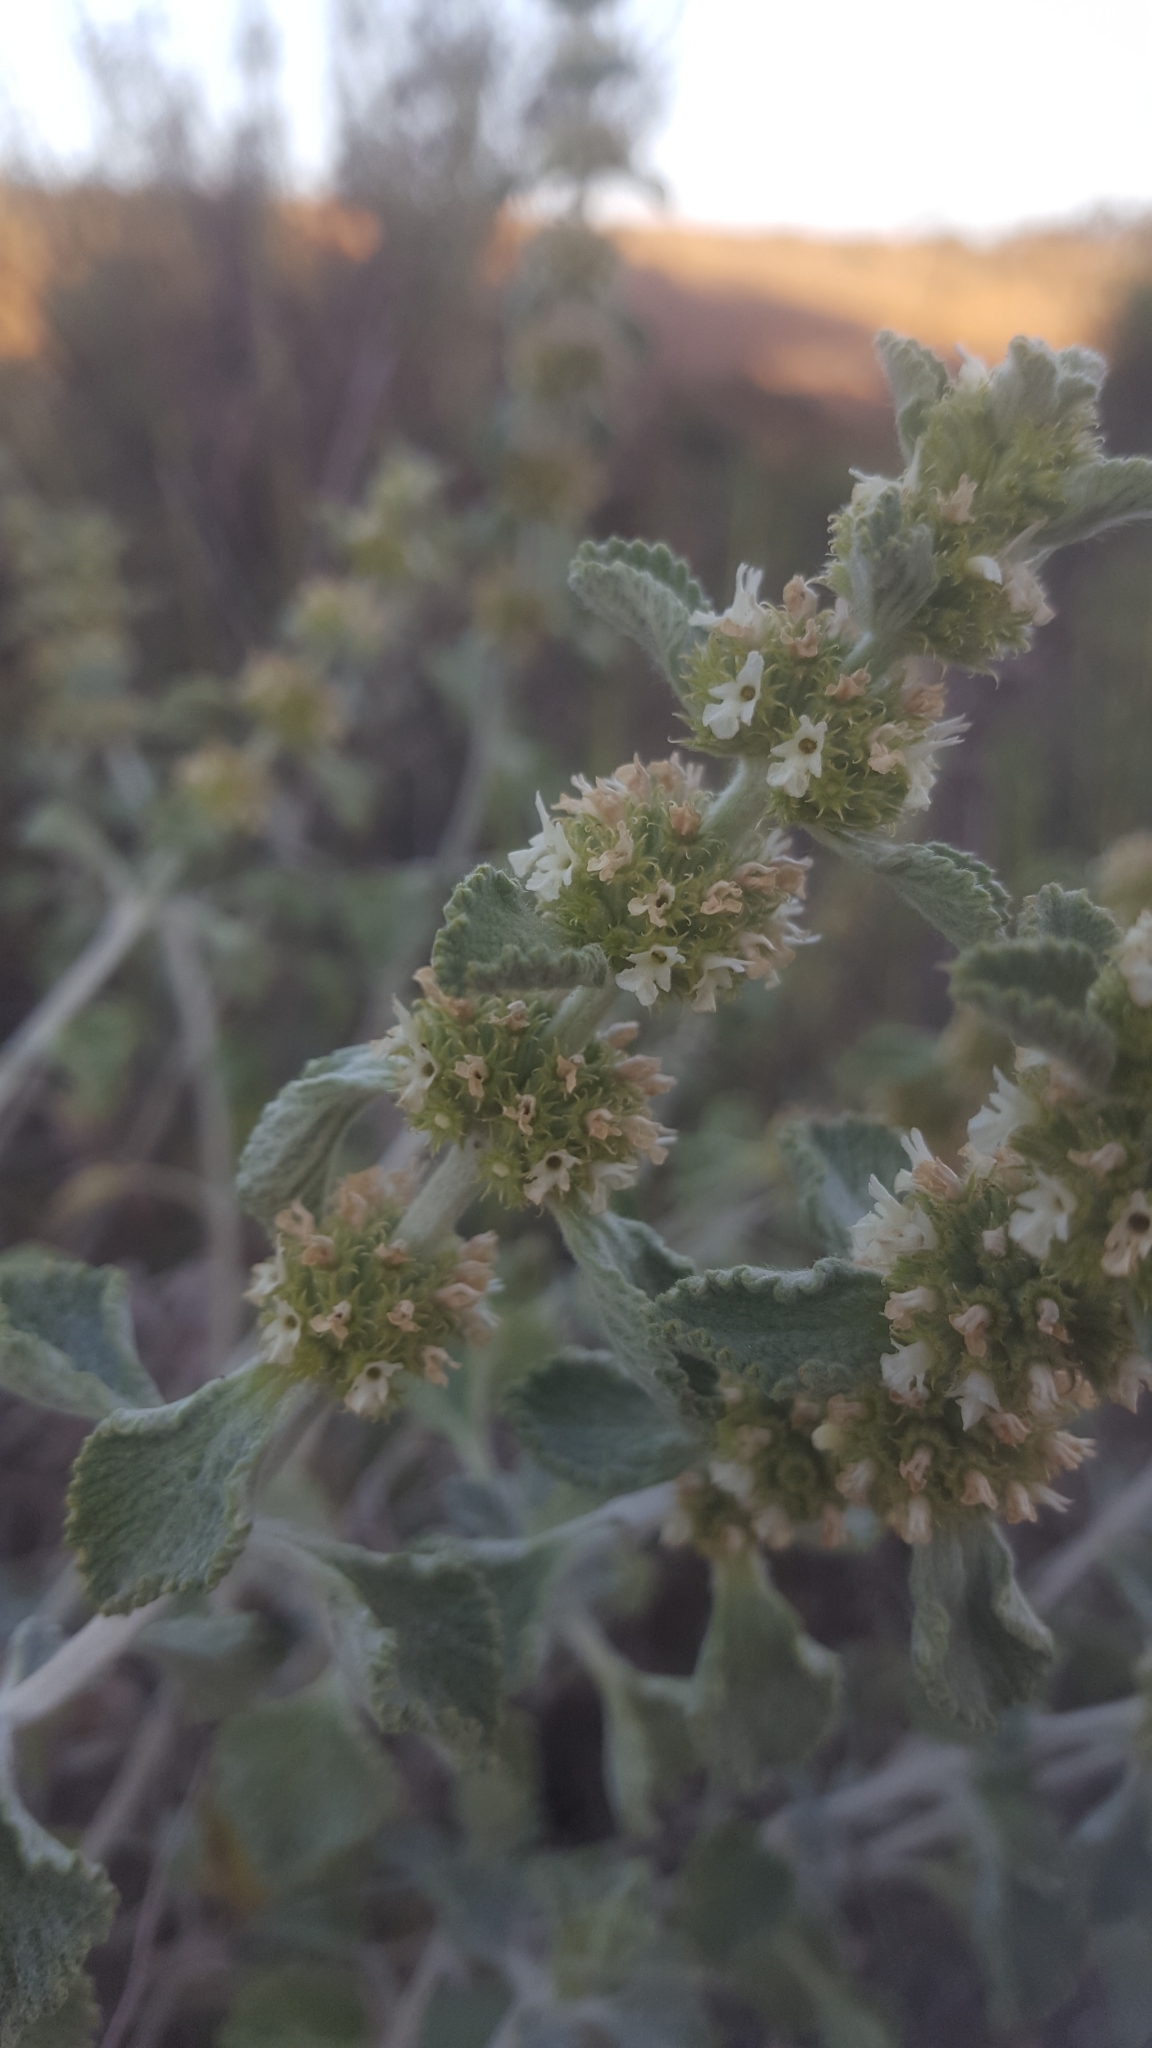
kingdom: Plantae
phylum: Tracheophyta
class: Magnoliopsida
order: Lamiales
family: Lamiaceae
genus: Marrubium
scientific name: Marrubium vulgare
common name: Horehound
